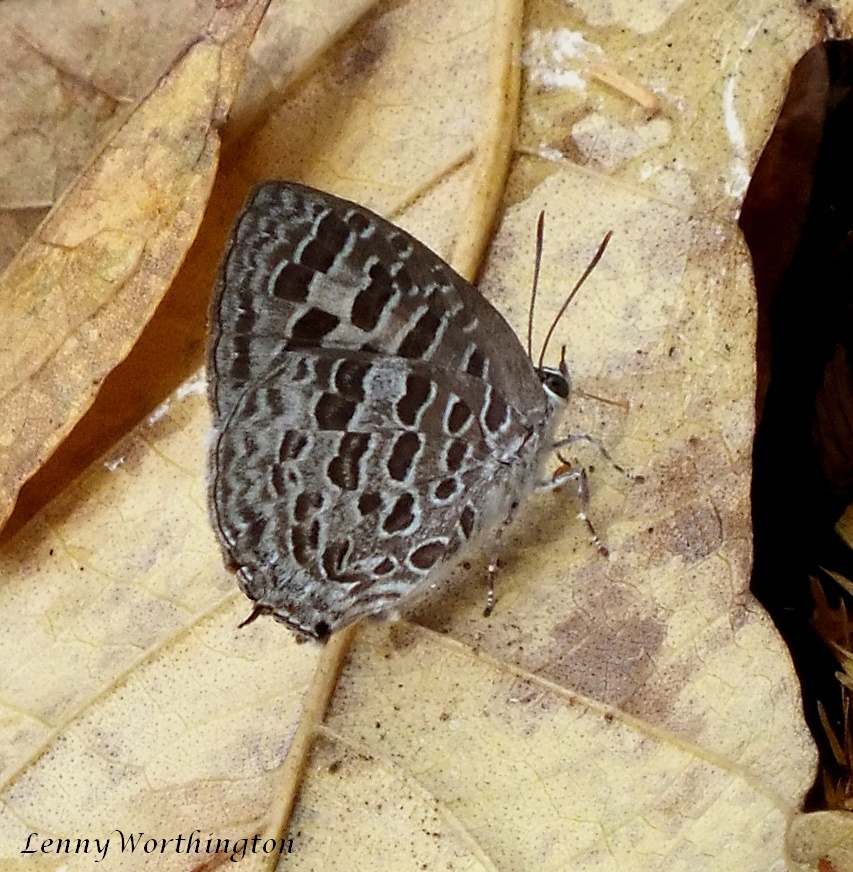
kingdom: Animalia
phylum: Arthropoda
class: Insecta
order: Lepidoptera
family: Lycaenidae
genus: Arhopala
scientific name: Arhopala aberrans
